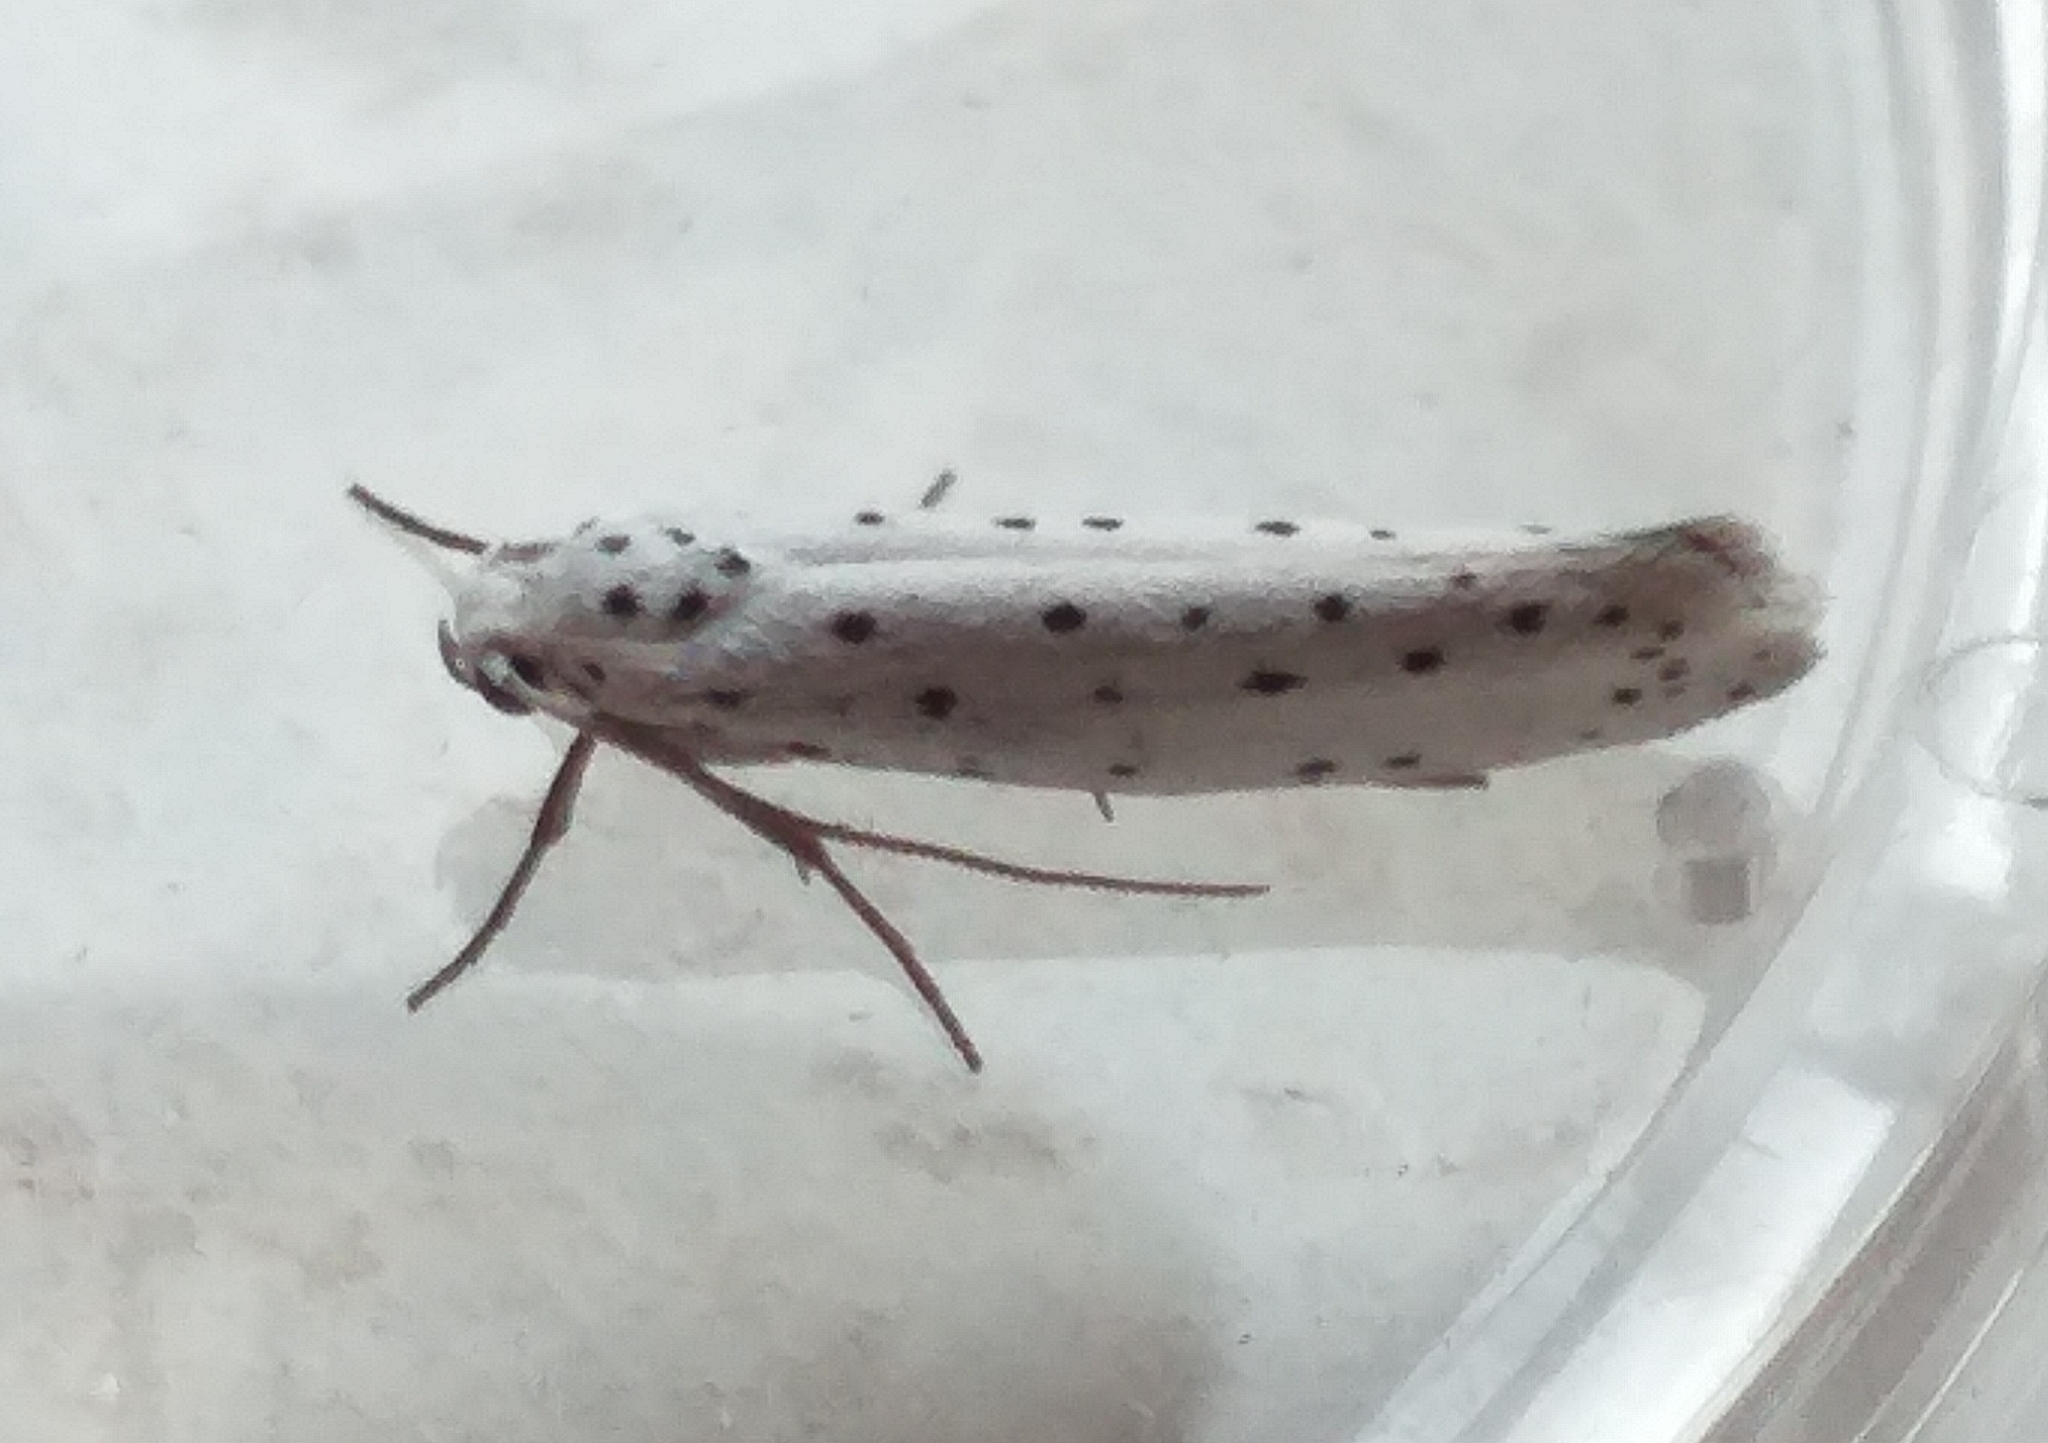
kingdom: Animalia
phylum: Arthropoda
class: Insecta
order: Lepidoptera
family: Yponomeutidae
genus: Yponomeuta
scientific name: Yponomeuta
